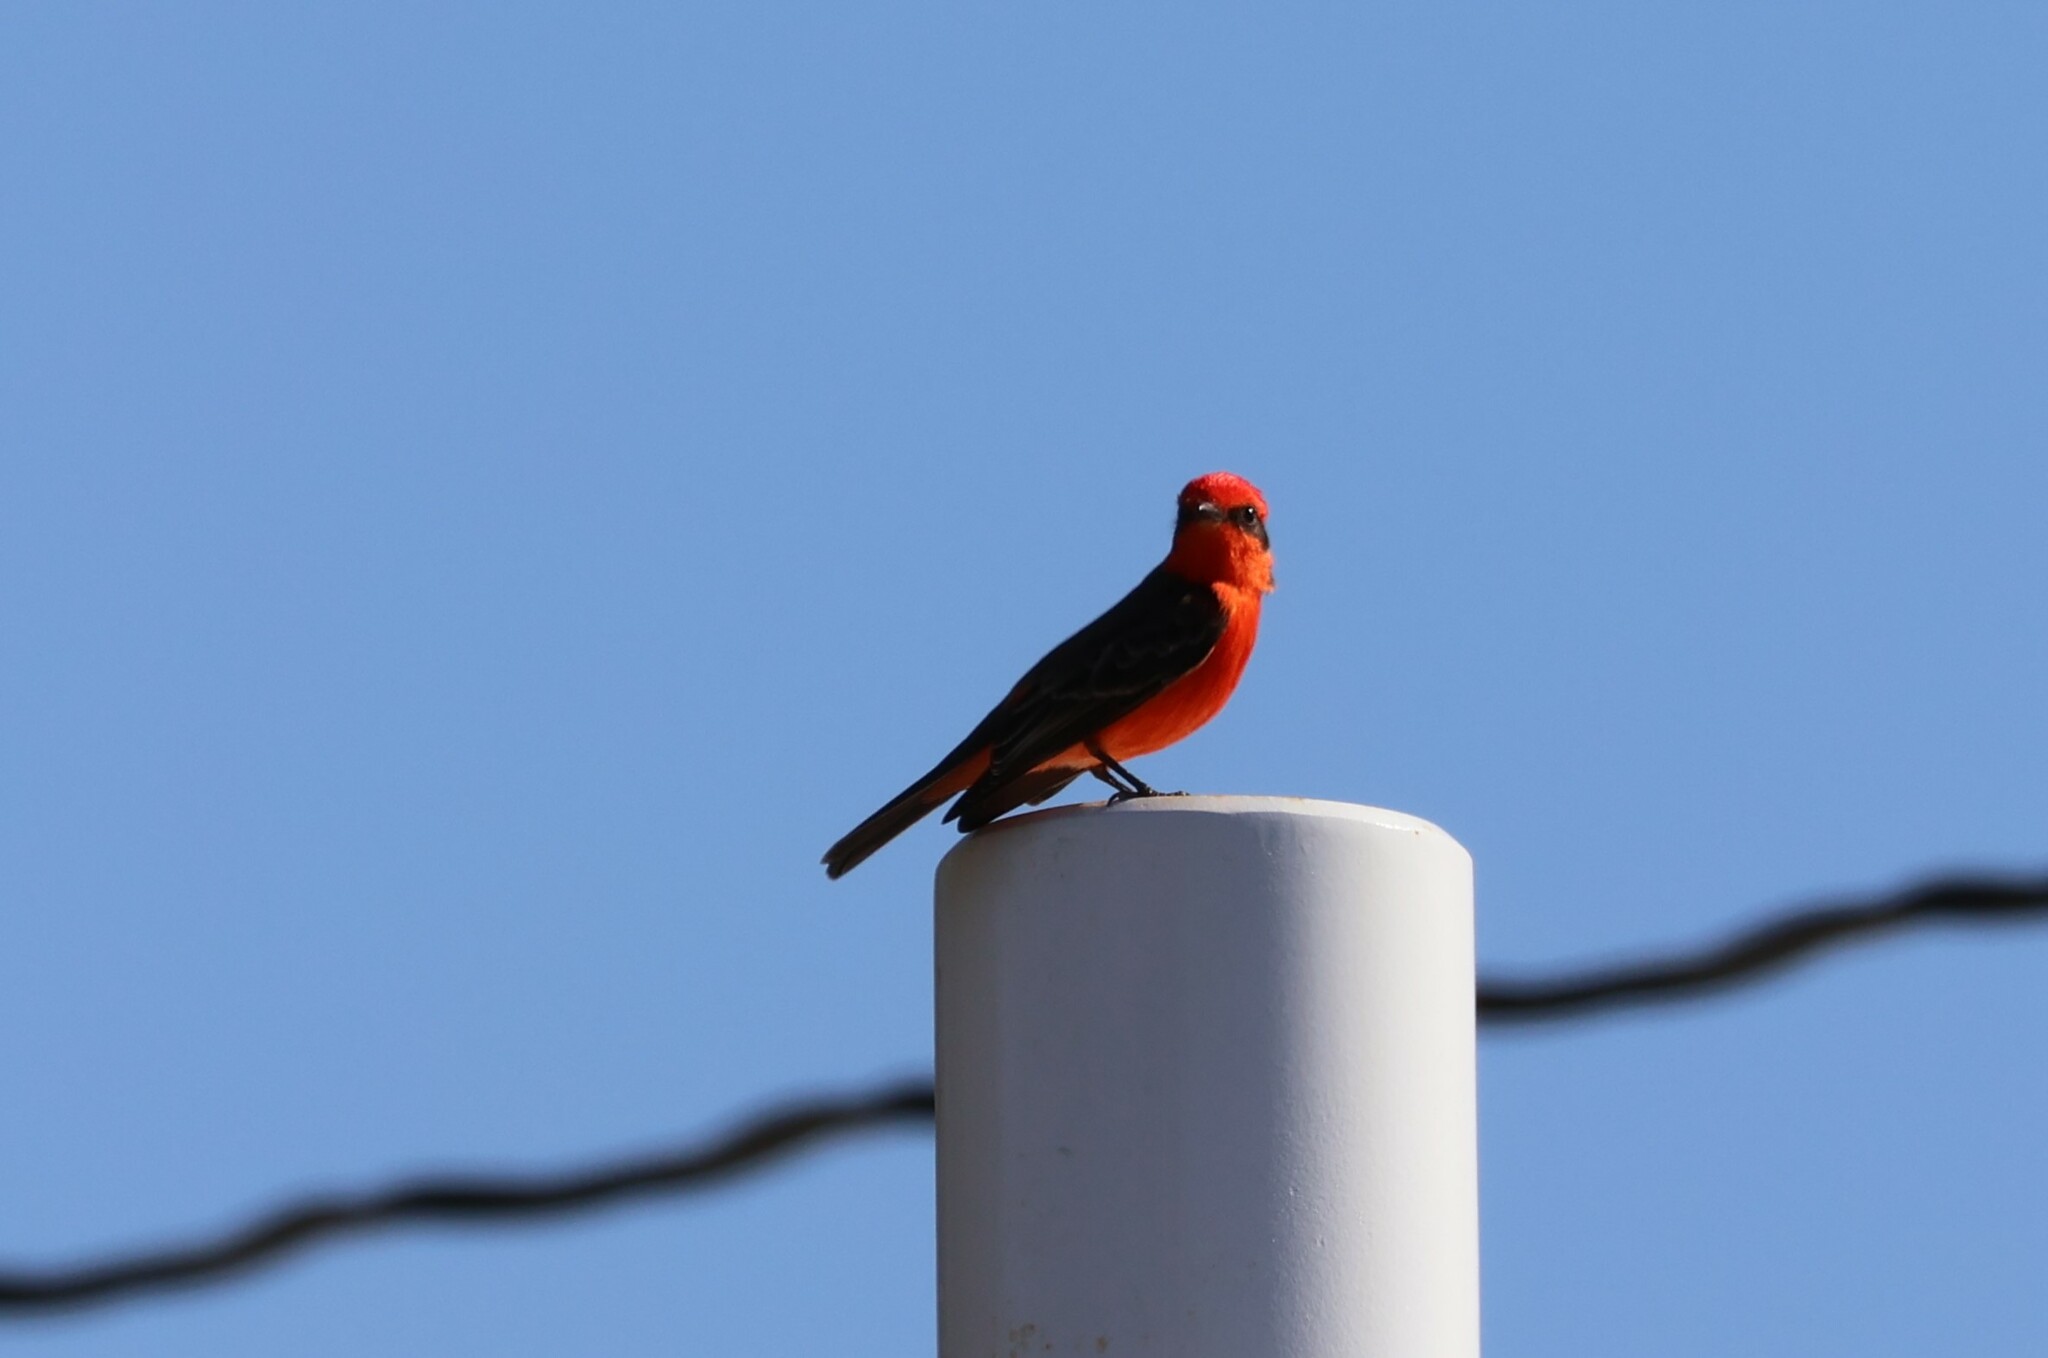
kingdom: Animalia
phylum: Chordata
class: Aves
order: Passeriformes
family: Tyrannidae
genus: Pyrocephalus
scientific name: Pyrocephalus rubinus
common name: Vermilion flycatcher
